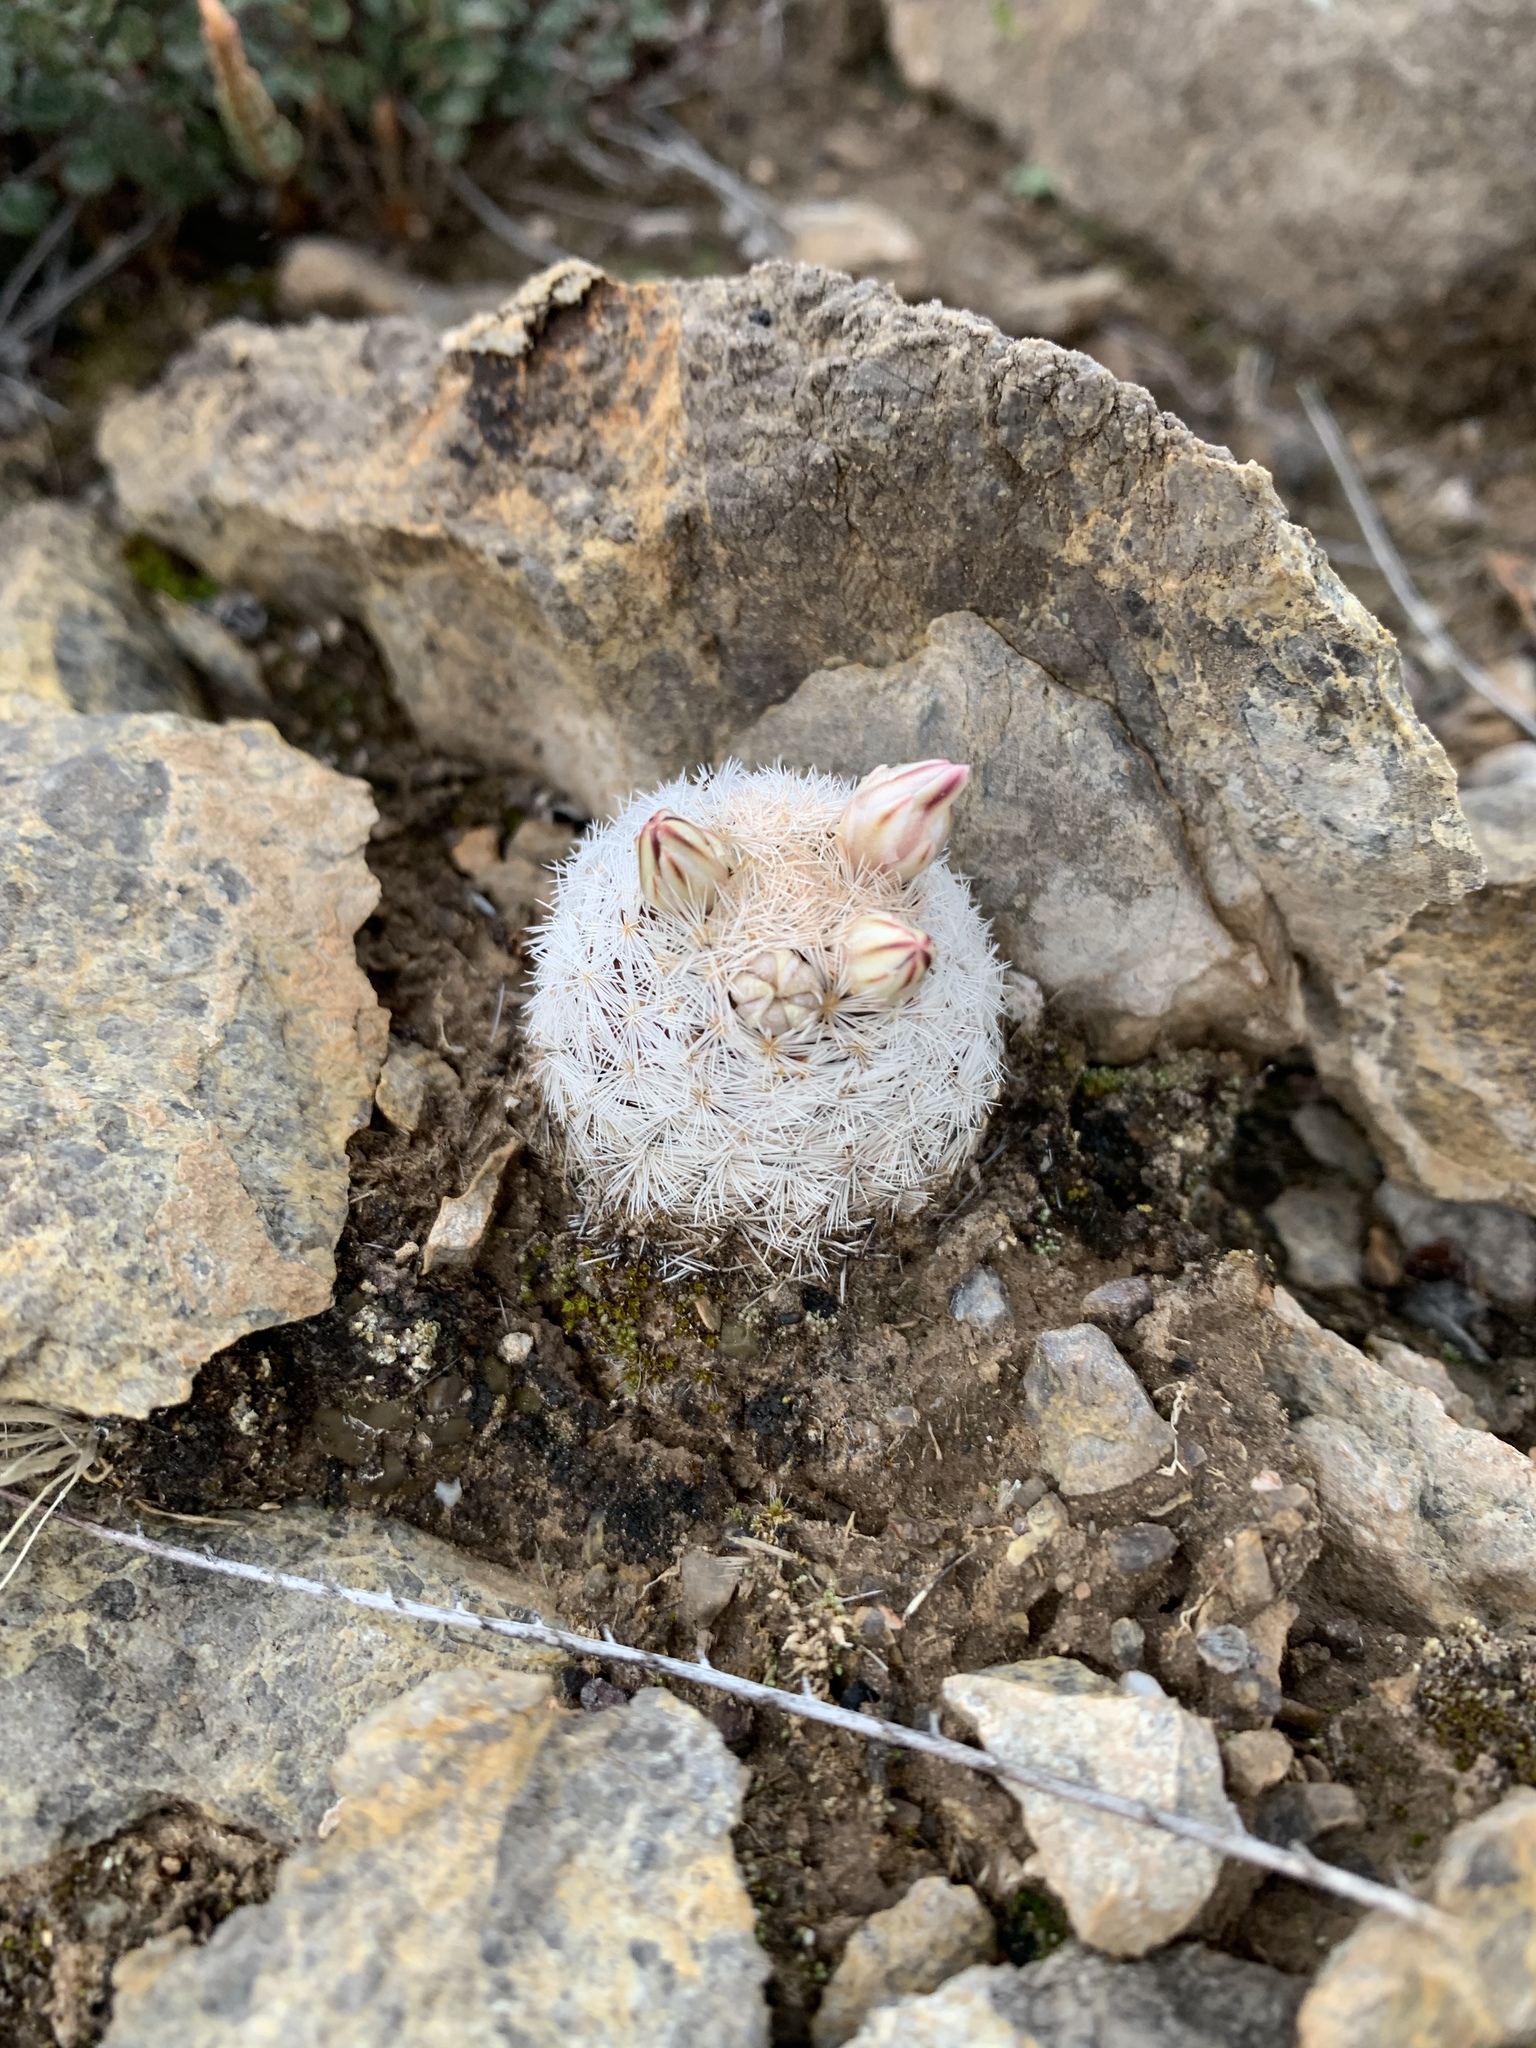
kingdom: Plantae
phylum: Tracheophyta
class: Magnoliopsida
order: Caryophyllales
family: Cactaceae
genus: Mammillaria
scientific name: Mammillaria lasiacantha
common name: Lace-spine nipple cactus
